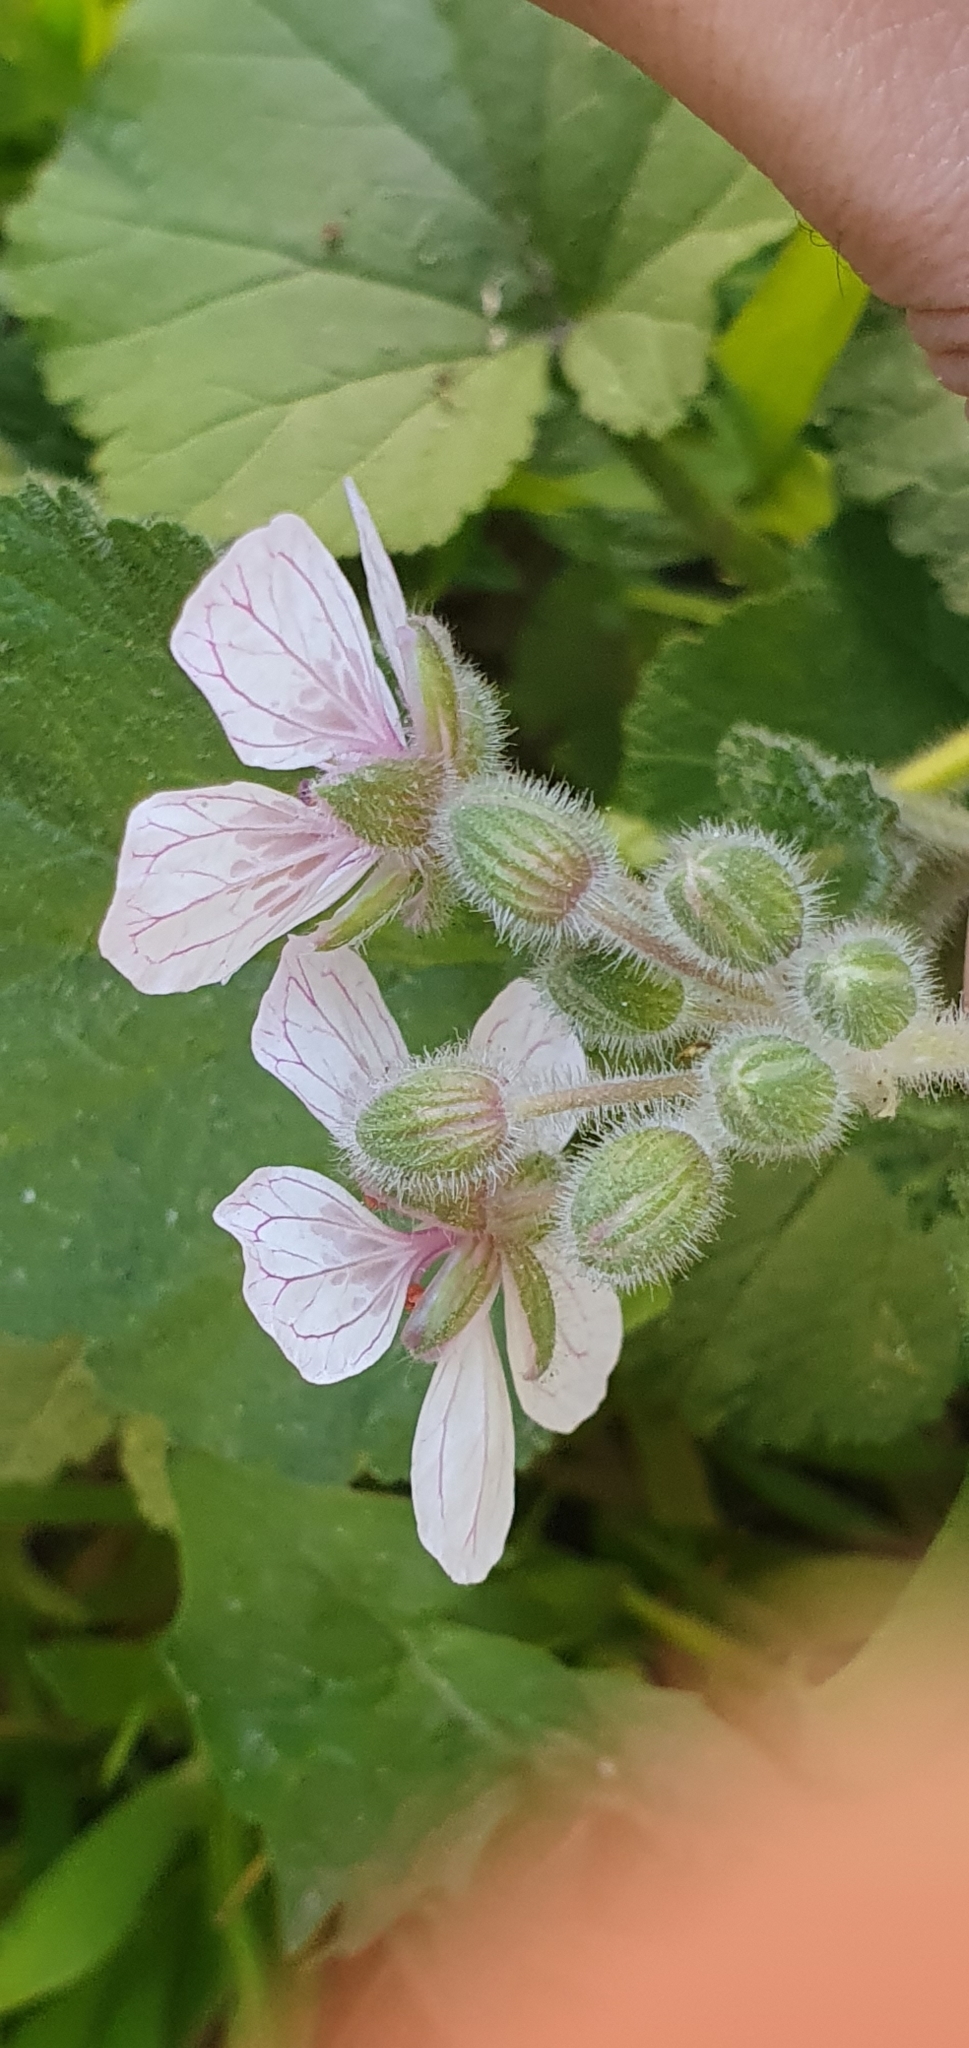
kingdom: Plantae
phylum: Tracheophyta
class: Magnoliopsida
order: Geraniales
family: Geraniaceae
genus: Erodium
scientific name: Erodium trifolium
